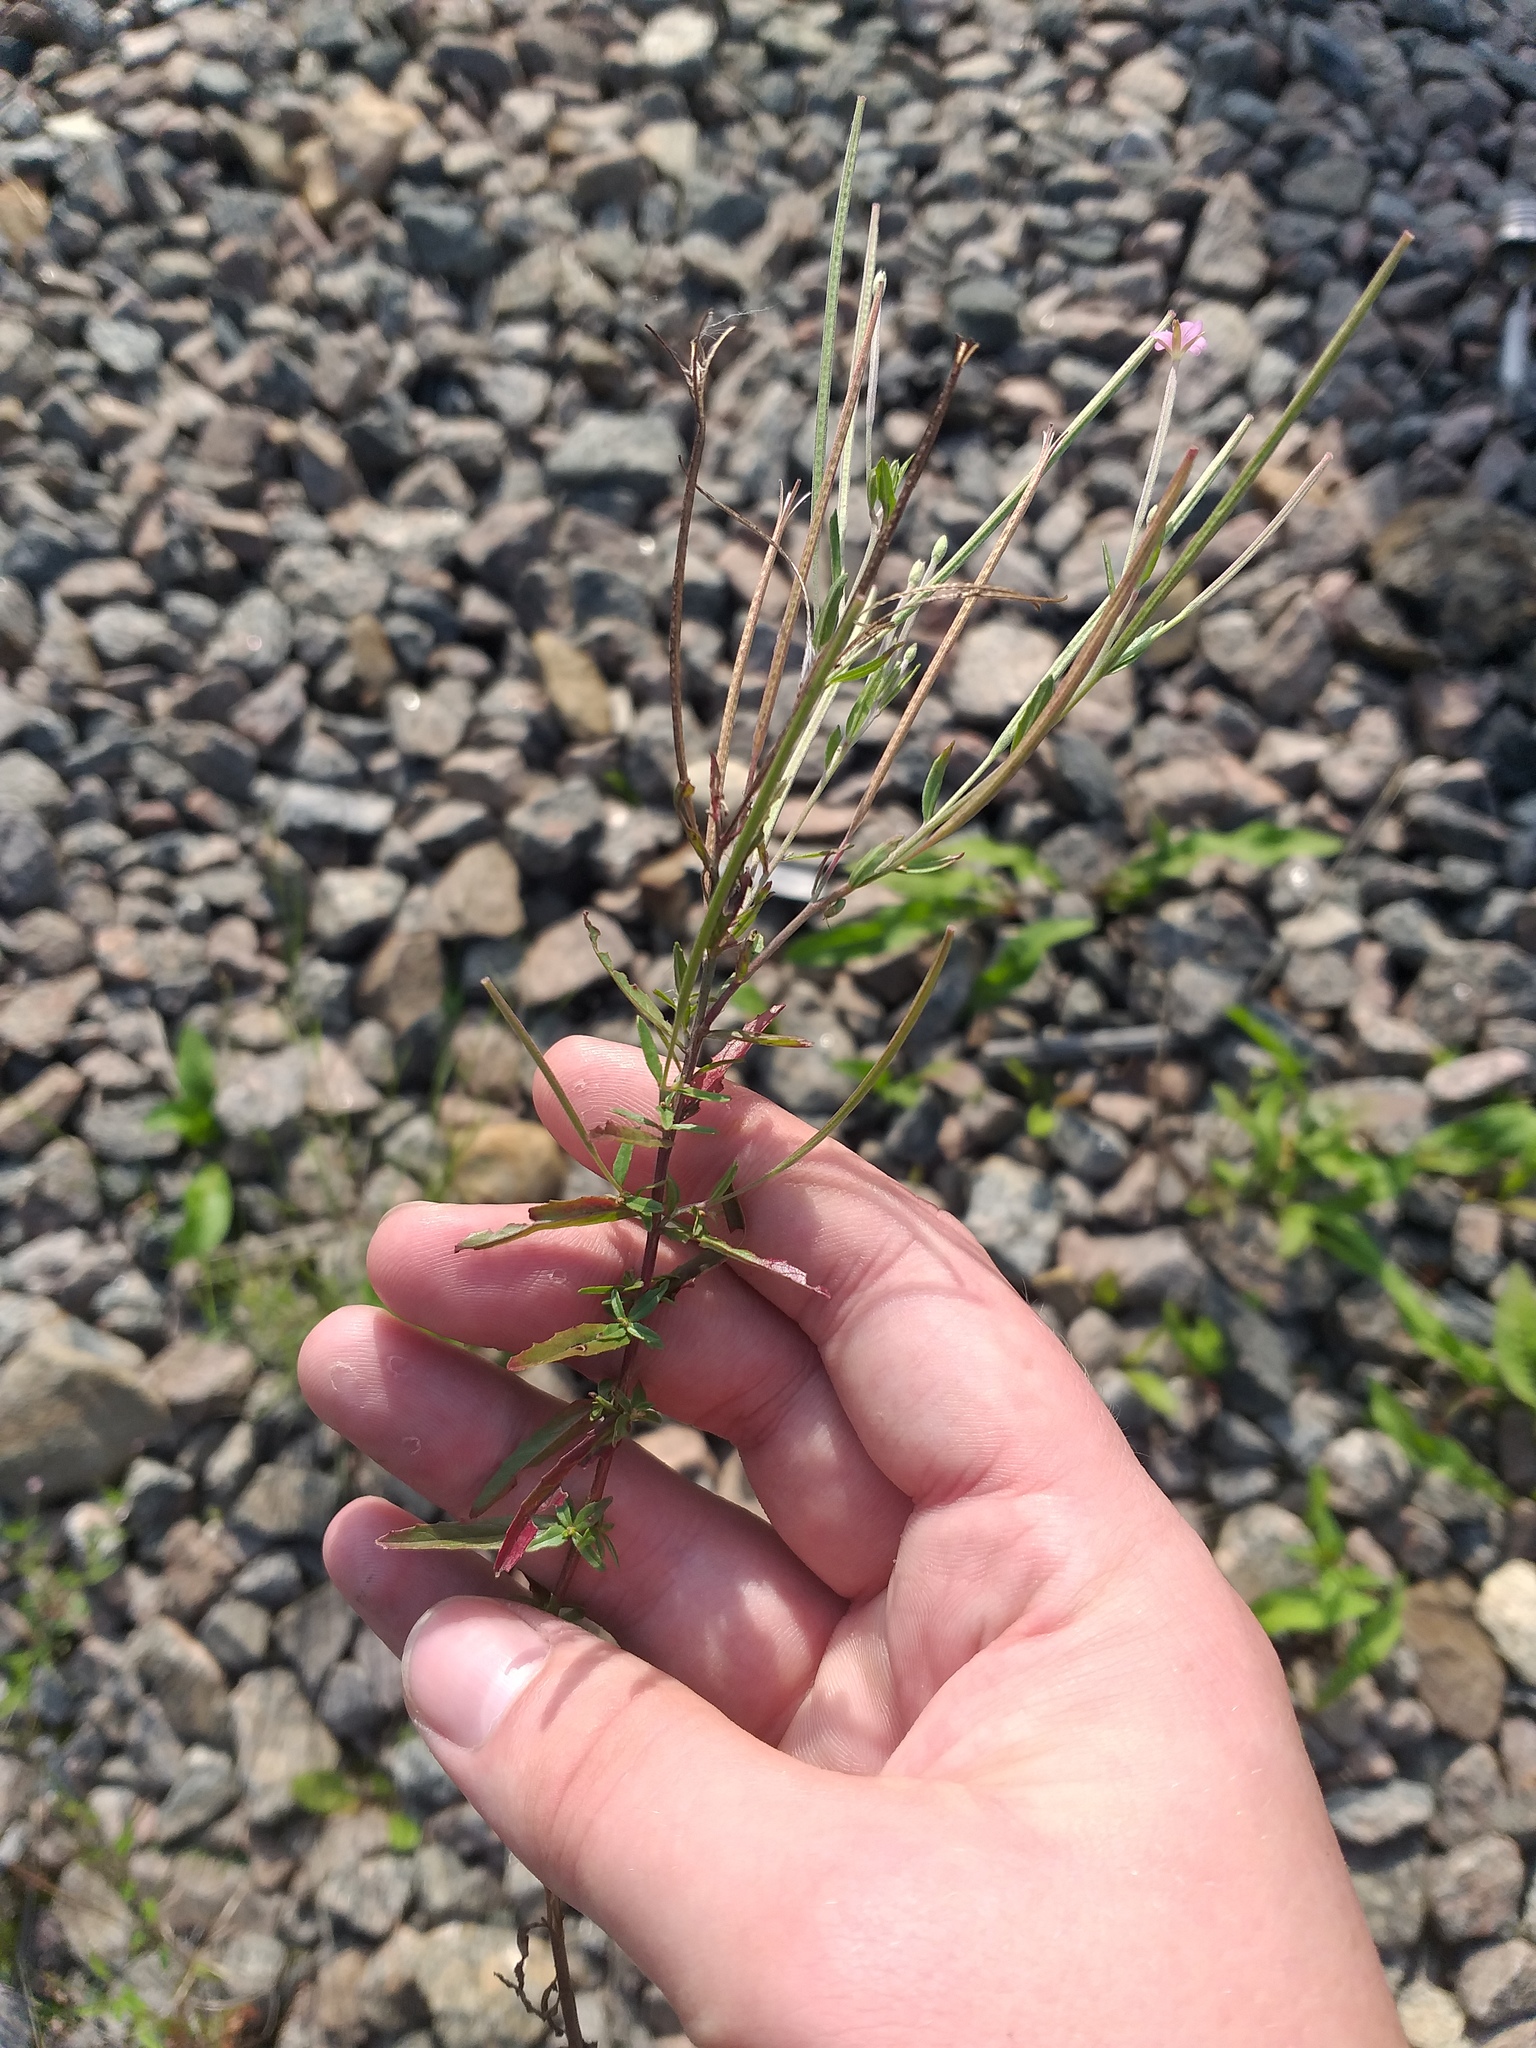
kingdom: Plantae
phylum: Tracheophyta
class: Magnoliopsida
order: Myrtales
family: Onagraceae
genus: Epilobium
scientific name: Epilobium tetragonum
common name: Square-stemmed willowherb
